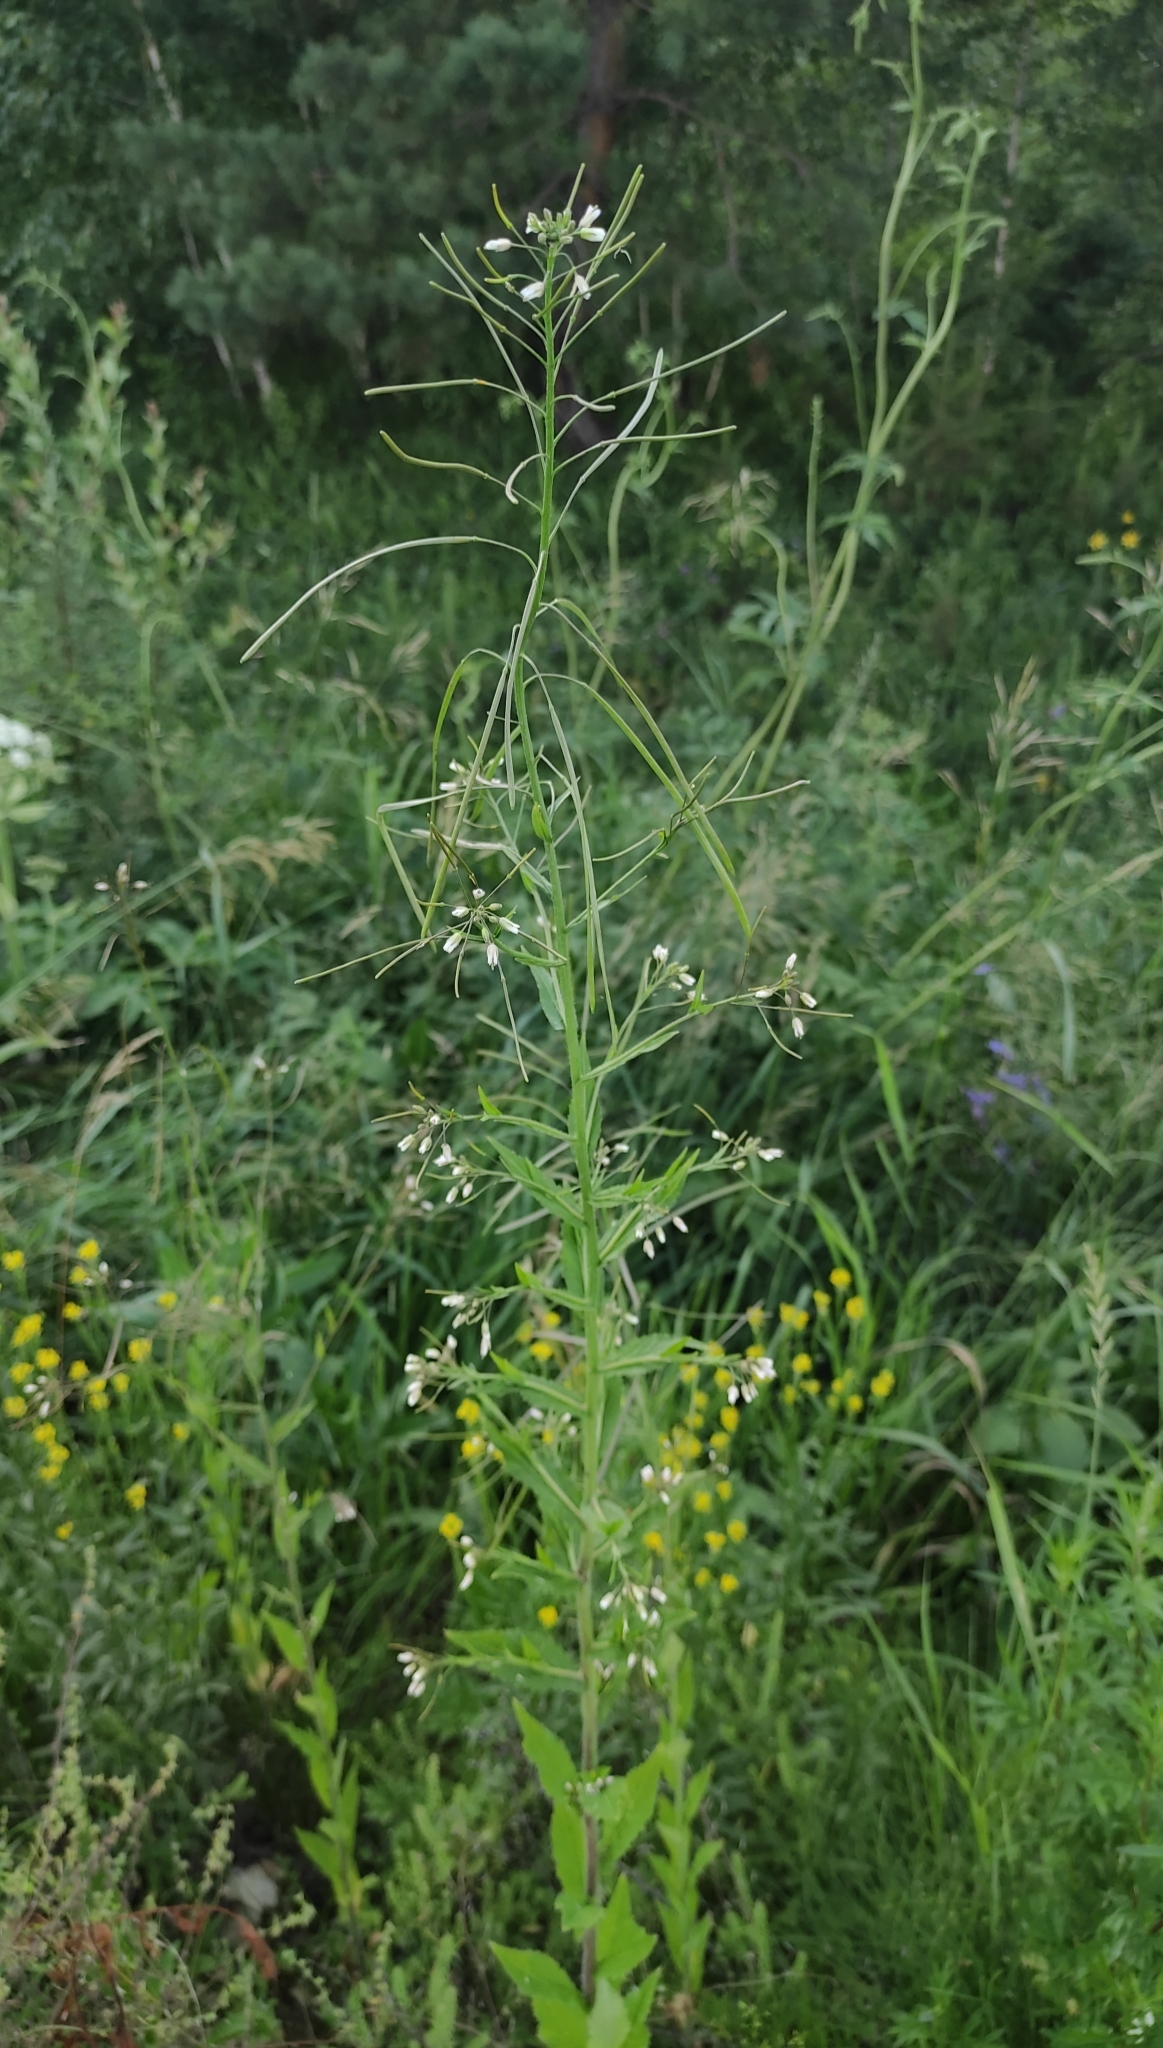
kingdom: Plantae
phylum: Tracheophyta
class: Magnoliopsida
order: Brassicales
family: Brassicaceae
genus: Catolobus
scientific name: Catolobus pendulus
